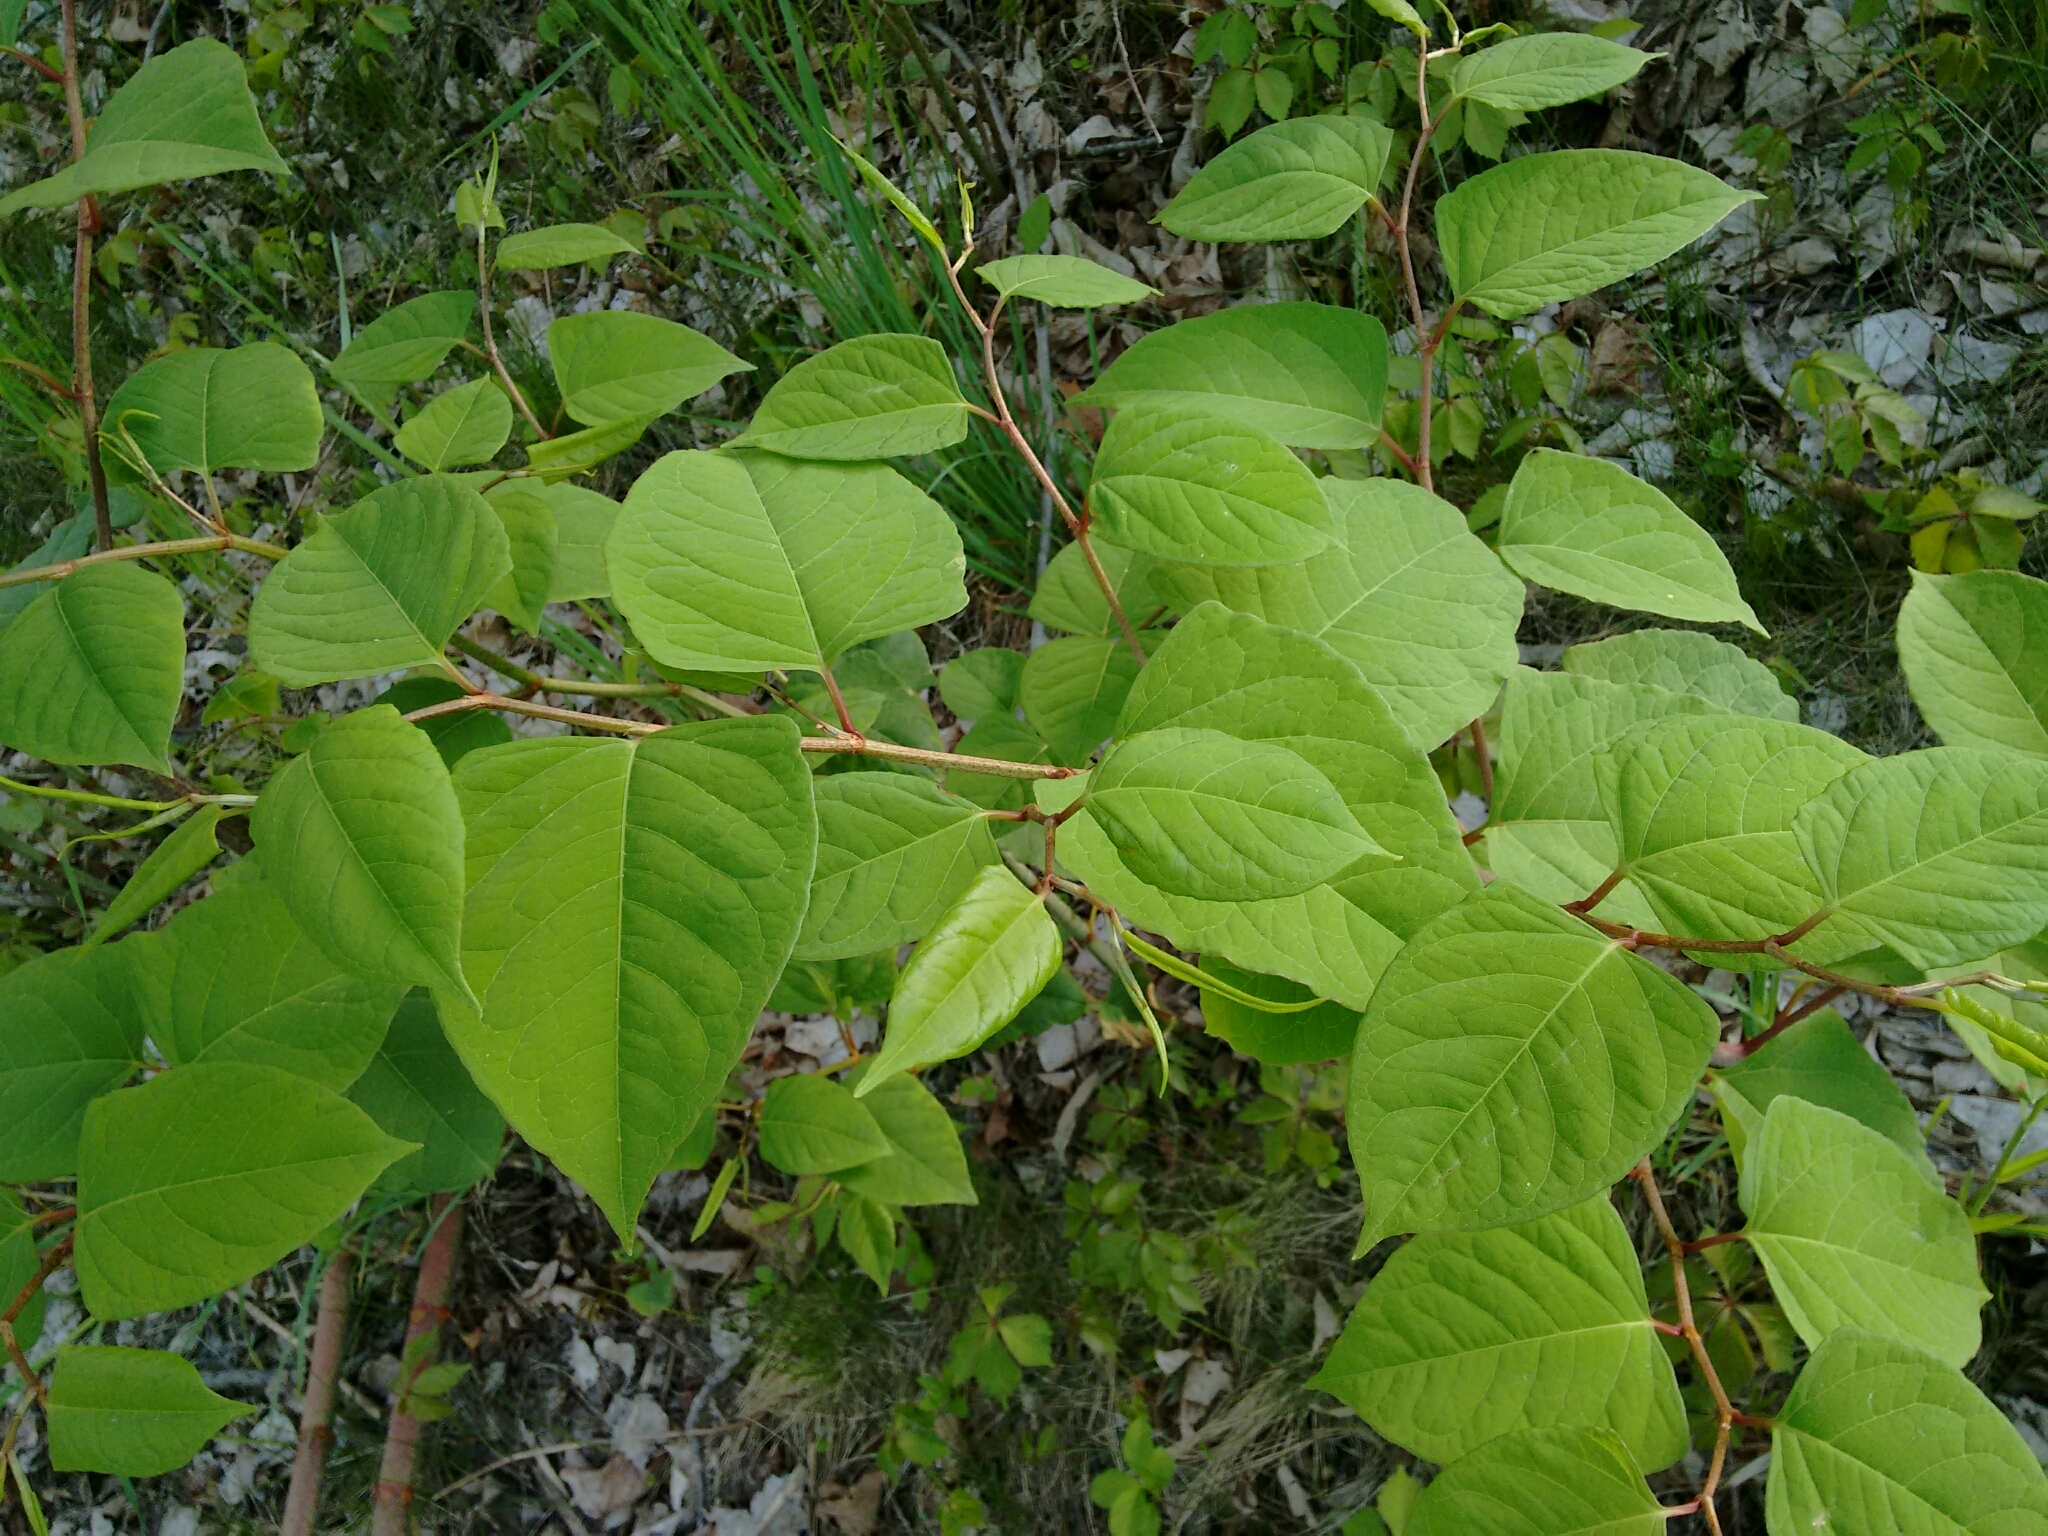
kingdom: Plantae
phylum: Tracheophyta
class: Magnoliopsida
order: Caryophyllales
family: Polygonaceae
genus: Reynoutria
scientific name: Reynoutria japonica
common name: Japanese knotweed
